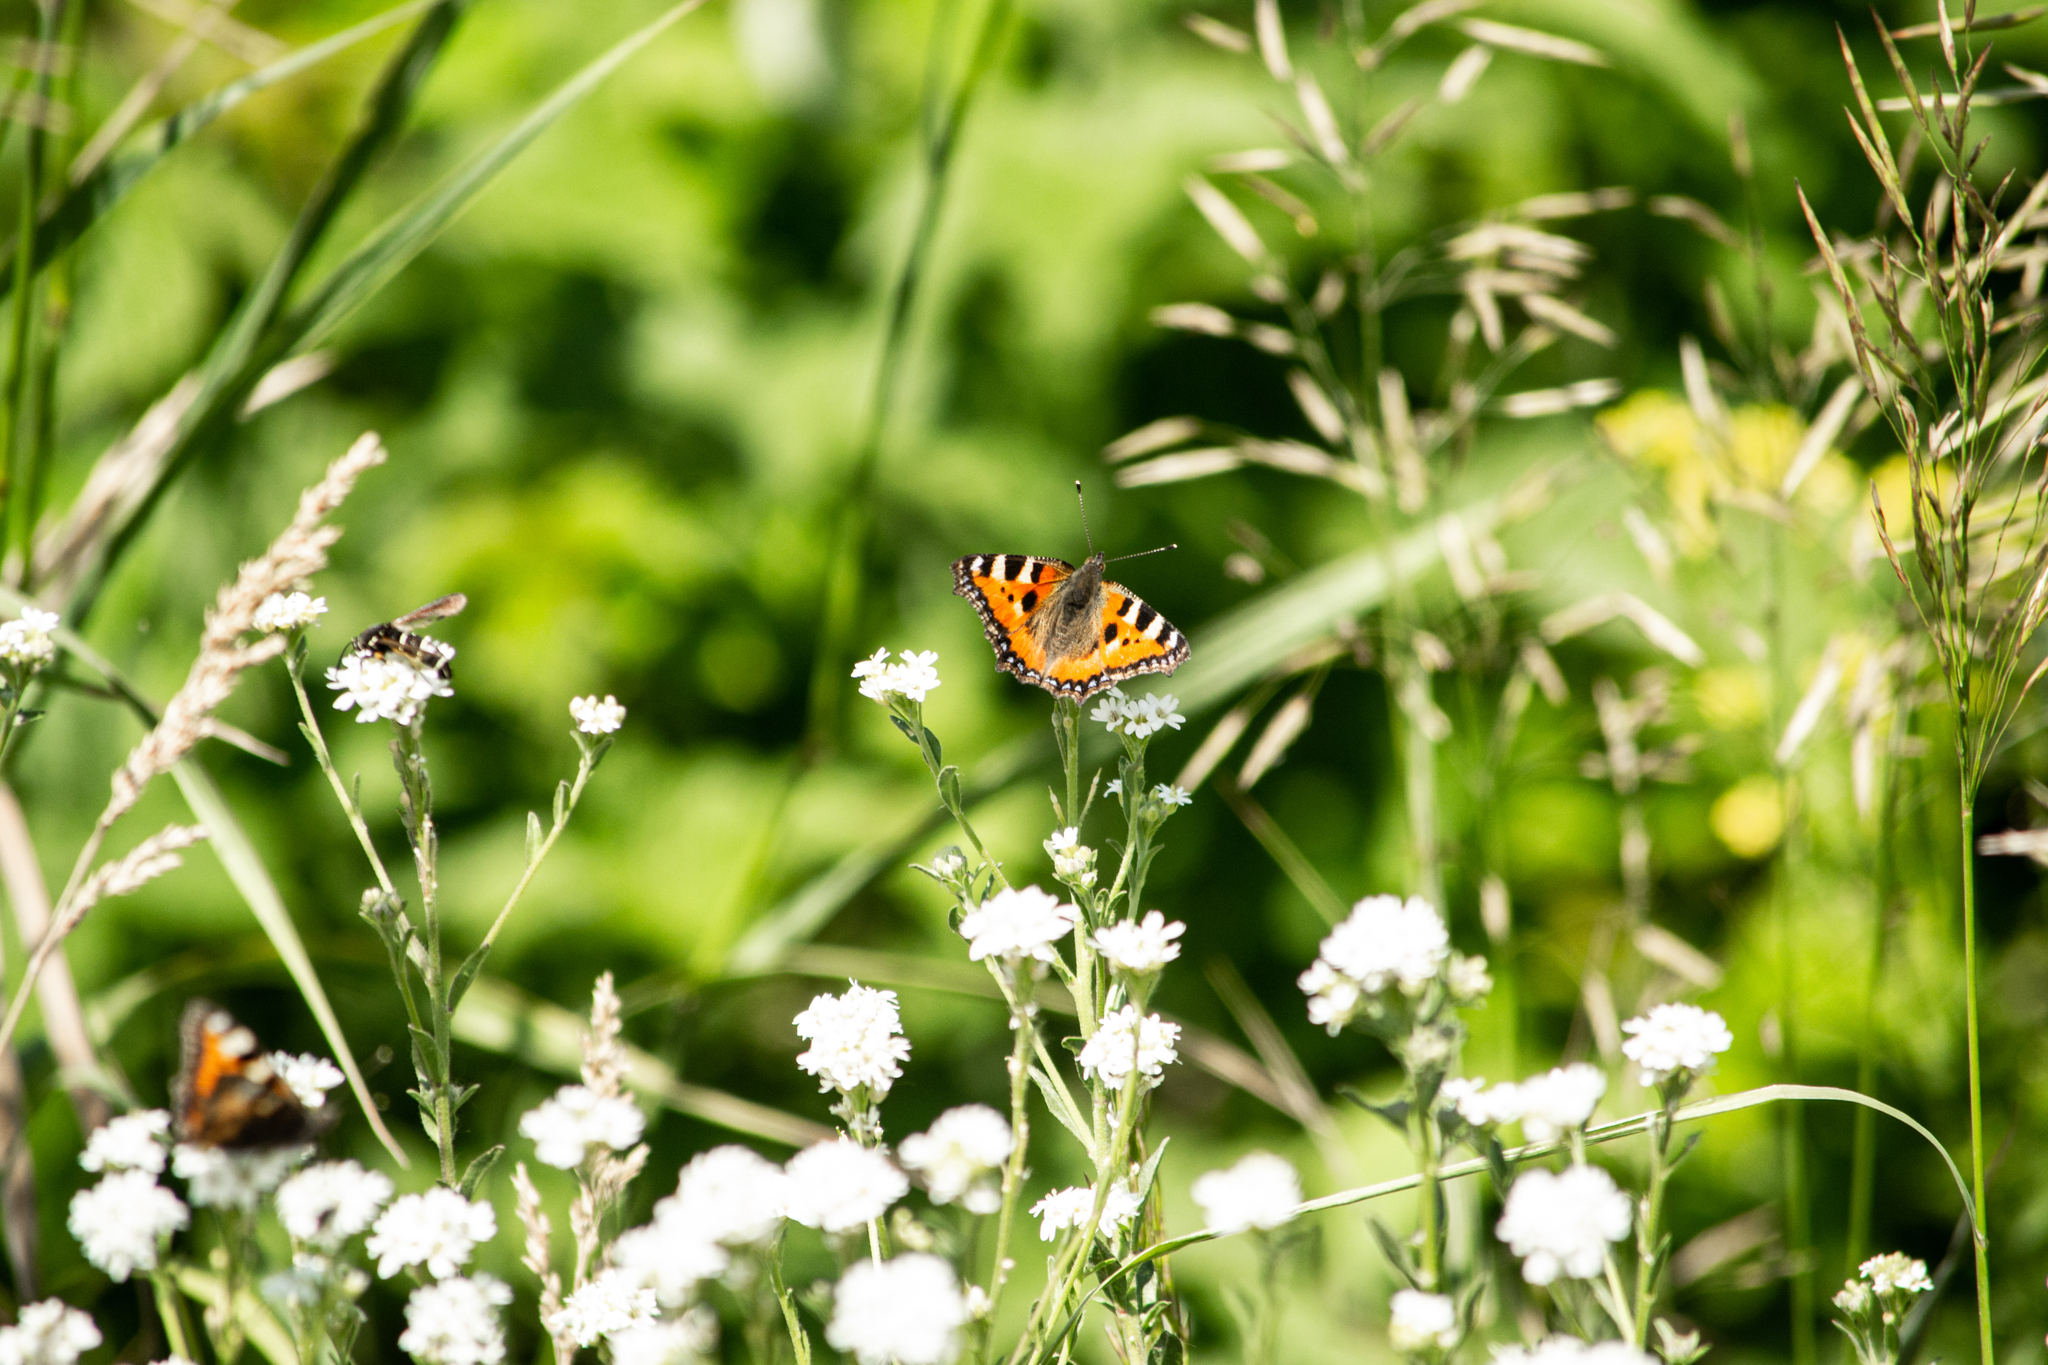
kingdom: Animalia
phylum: Arthropoda
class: Insecta
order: Lepidoptera
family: Nymphalidae
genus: Aglais
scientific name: Aglais urticae
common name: Small tortoiseshell
